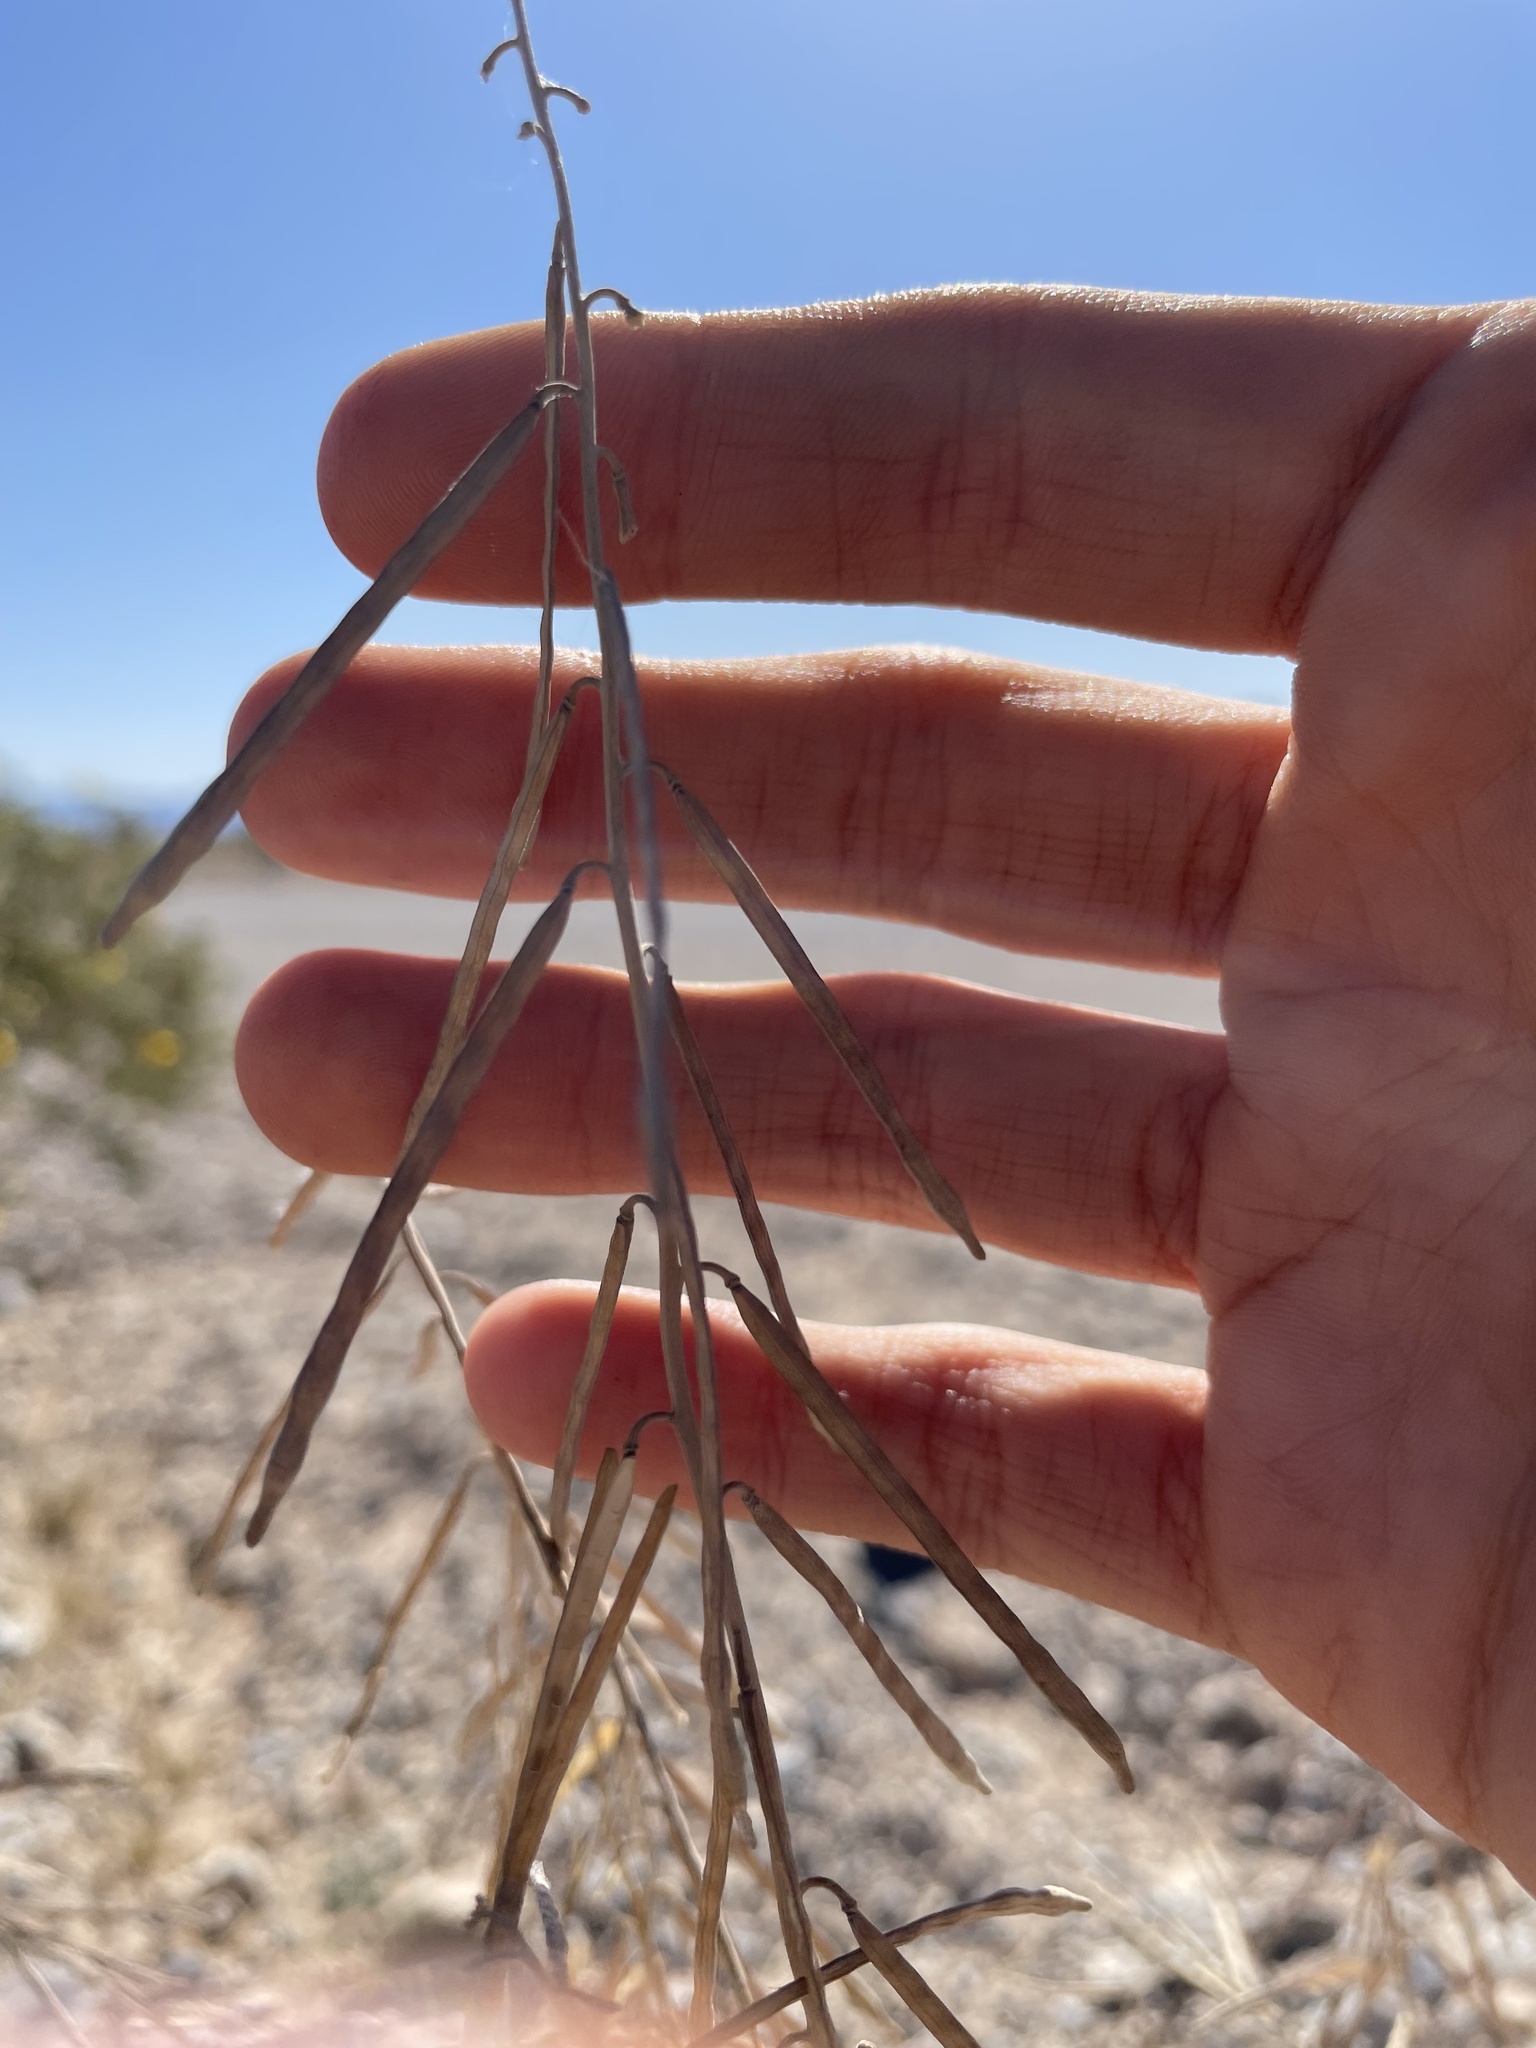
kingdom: Plantae
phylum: Tracheophyta
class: Magnoliopsida
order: Brassicales
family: Brassicaceae
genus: Streptanthus
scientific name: Streptanthus longirostris
